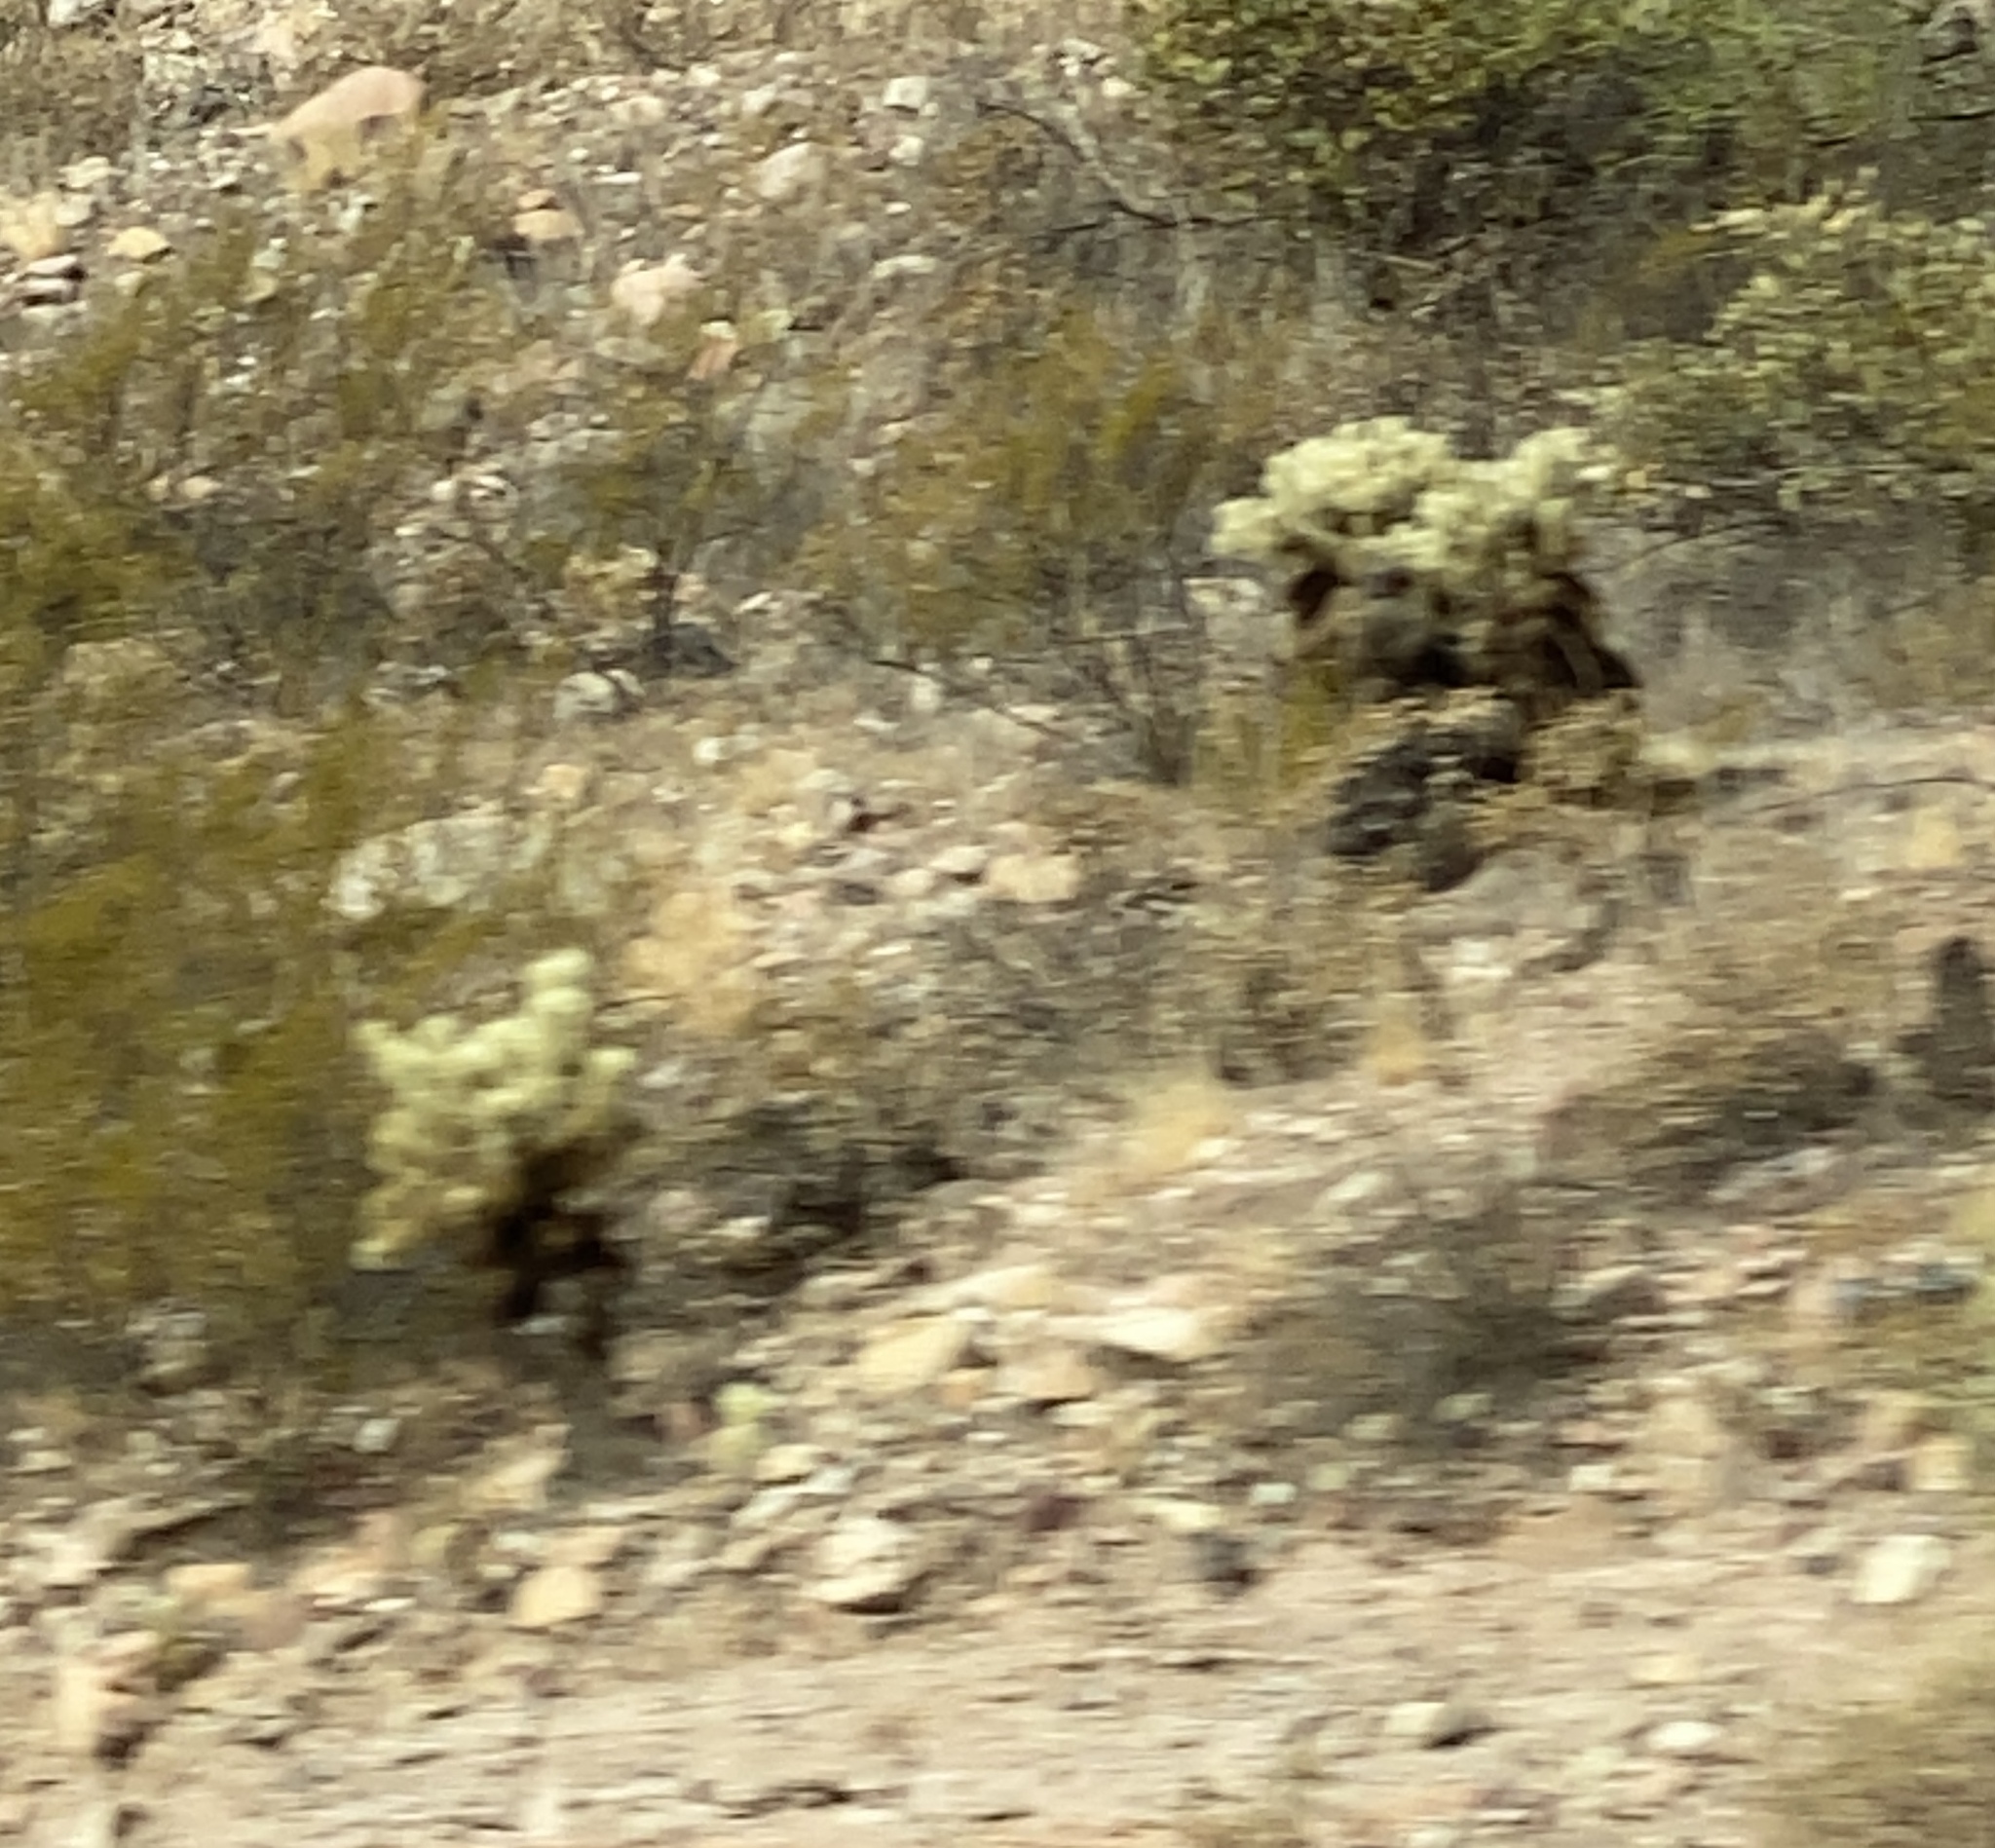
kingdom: Plantae
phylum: Tracheophyta
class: Magnoliopsida
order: Caryophyllales
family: Cactaceae
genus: Cylindropuntia
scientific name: Cylindropuntia fosbergii
